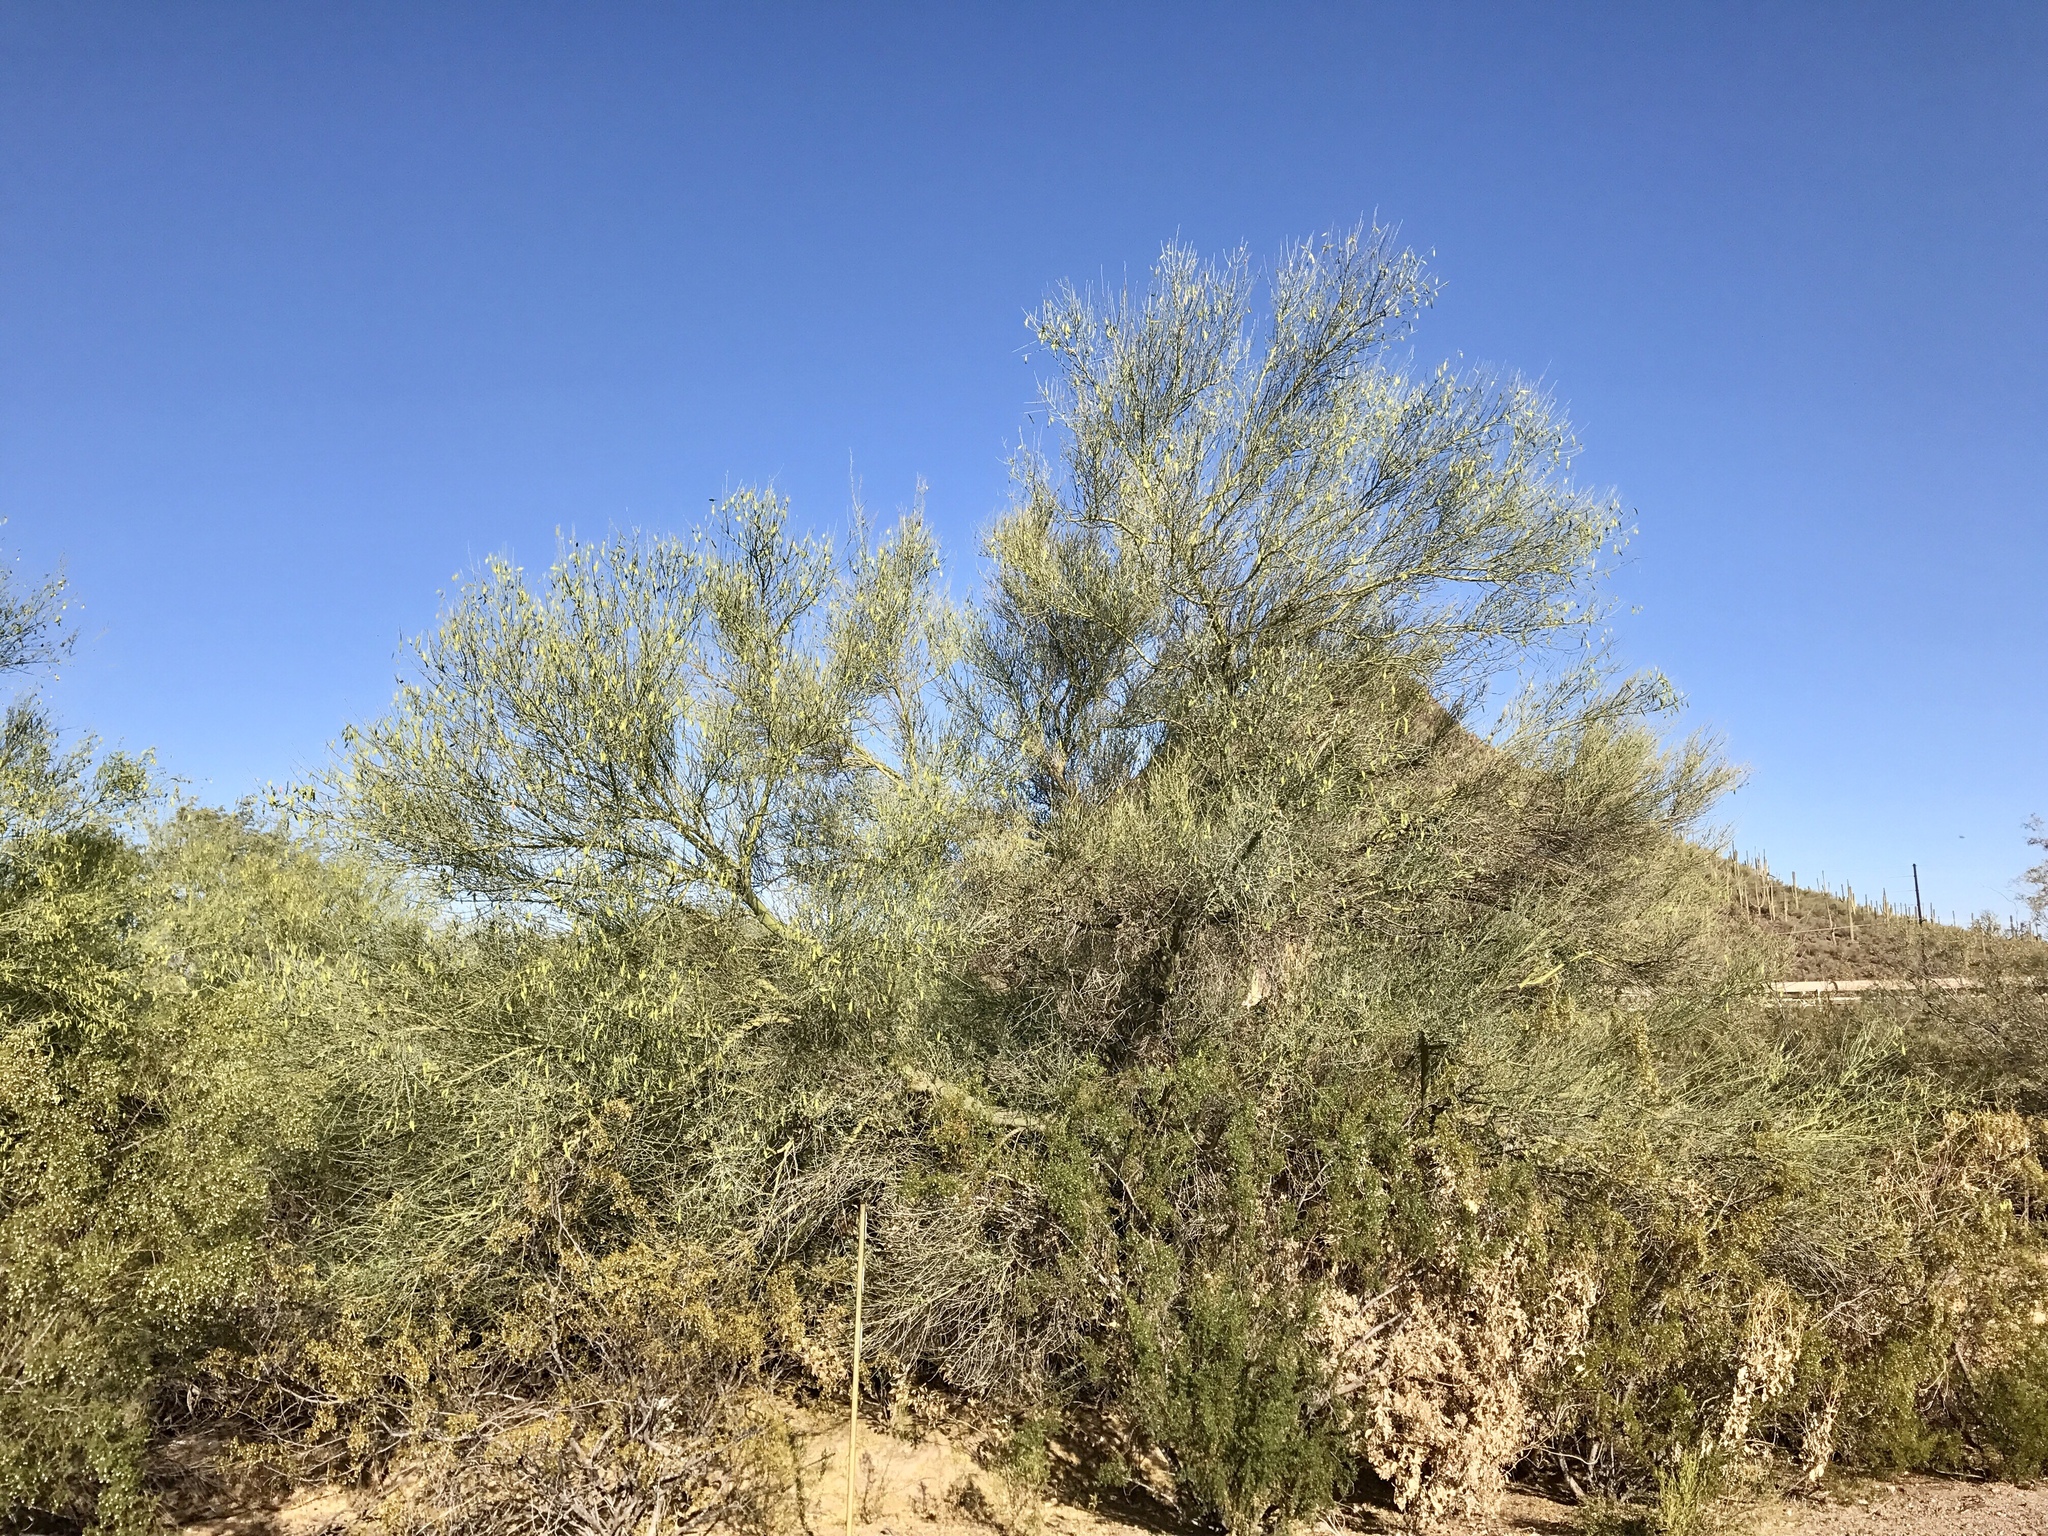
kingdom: Plantae
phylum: Tracheophyta
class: Magnoliopsida
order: Fabales
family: Fabaceae
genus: Parkinsonia
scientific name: Parkinsonia florida
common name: Blue paloverde
